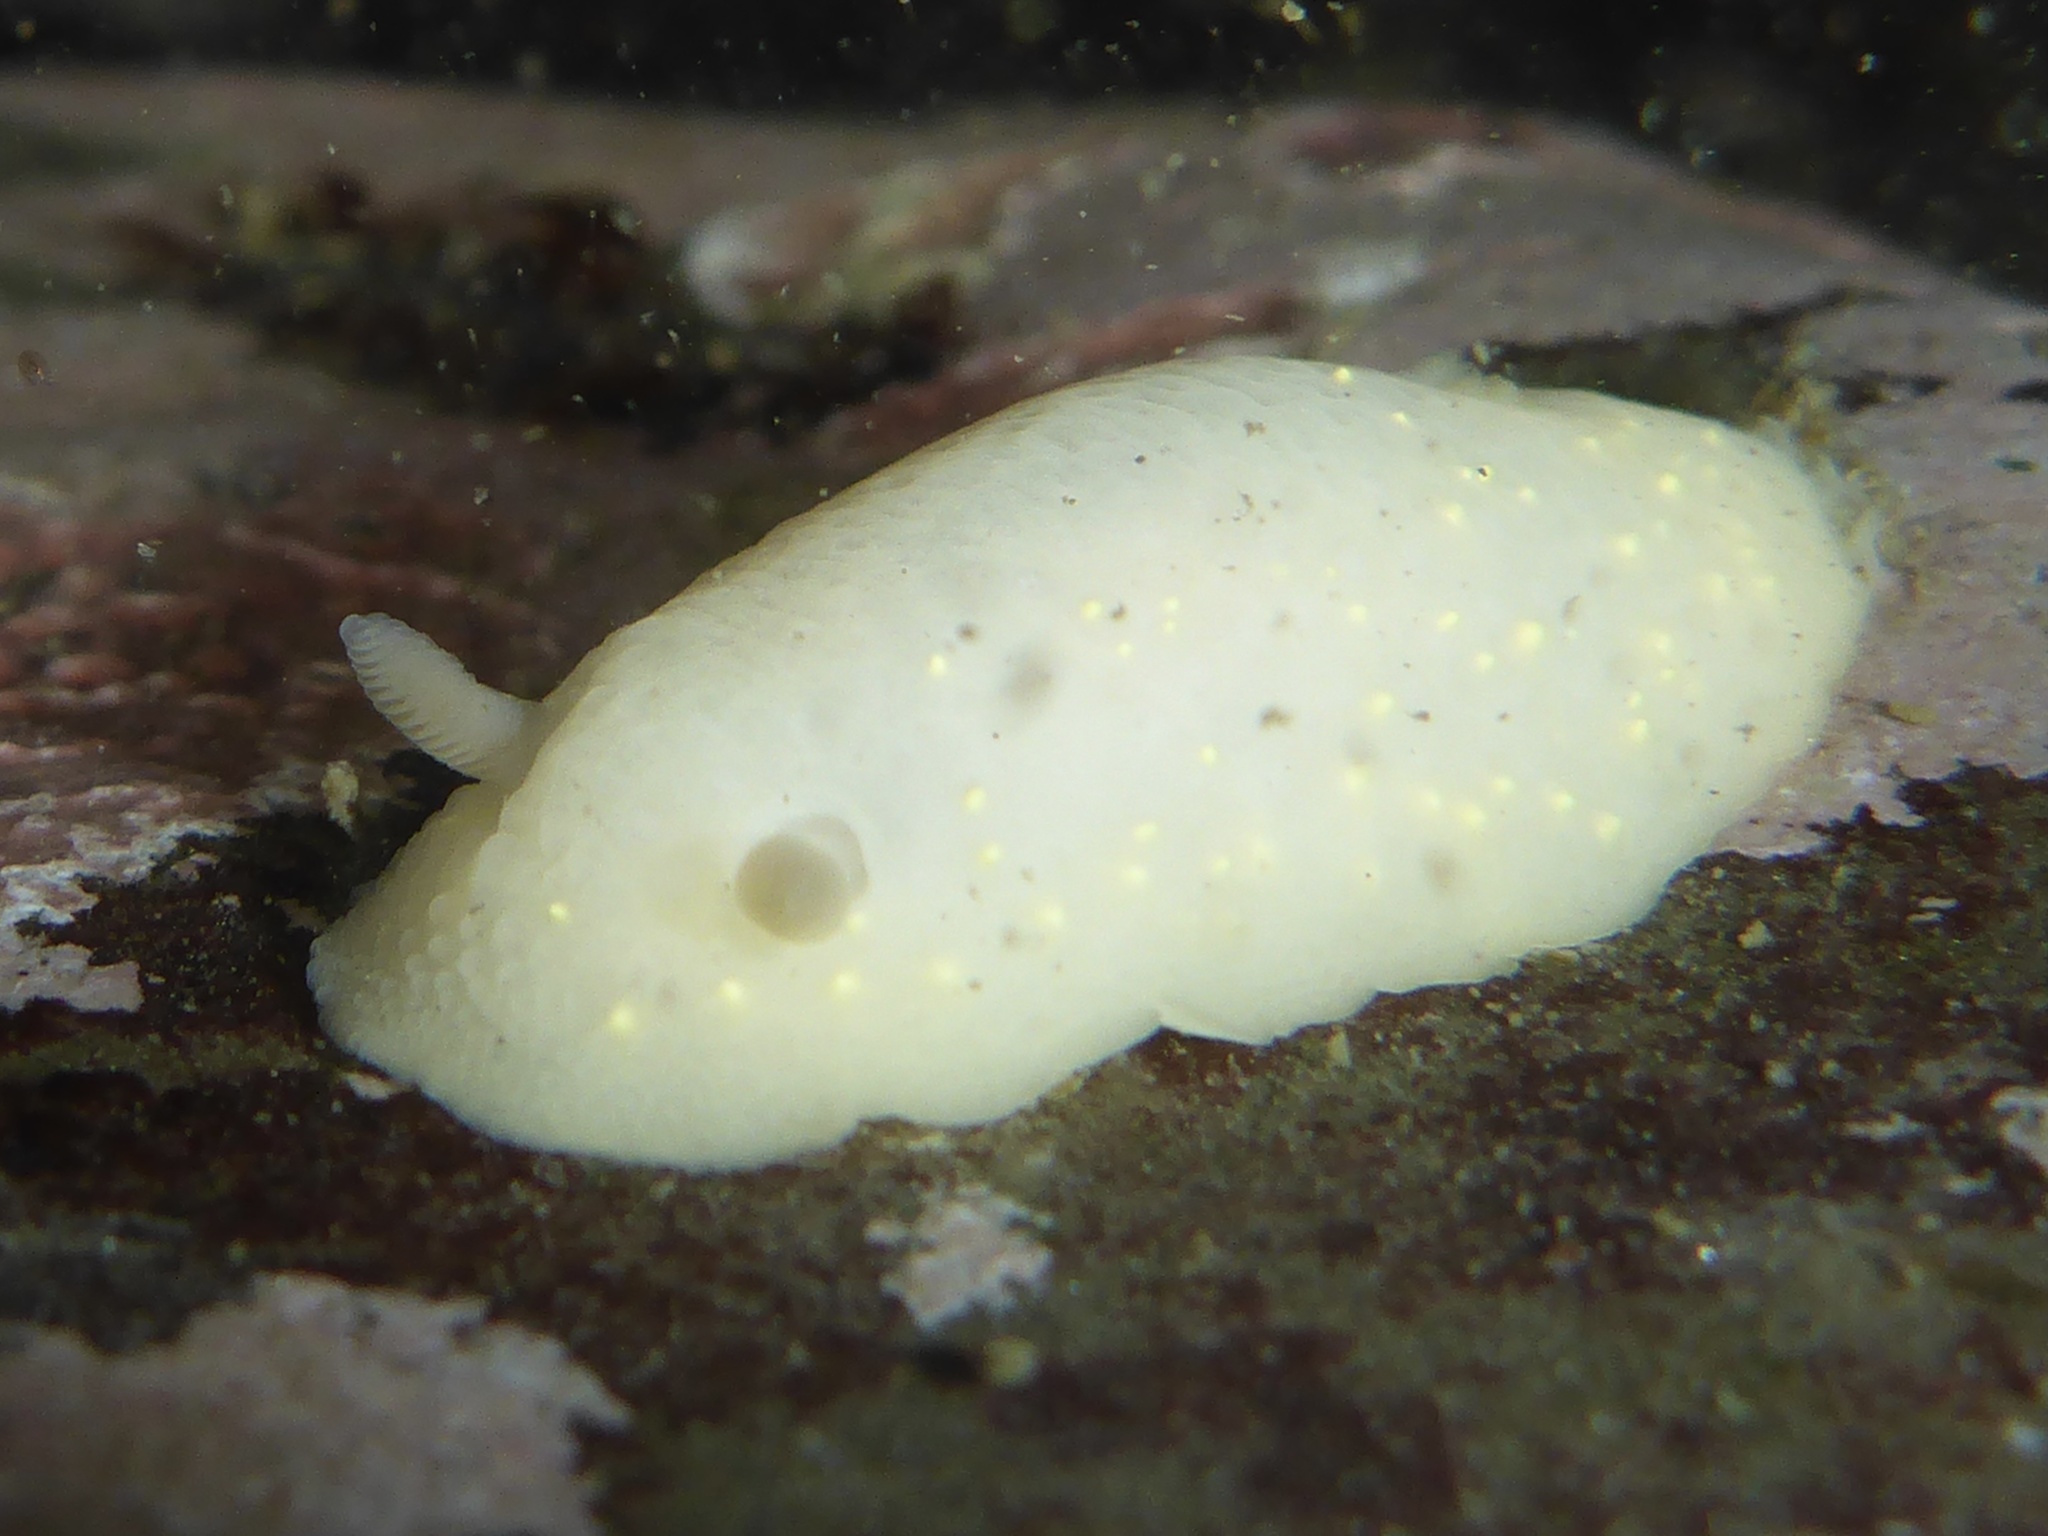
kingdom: Animalia
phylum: Mollusca
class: Gastropoda
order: Nudibranchia
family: Cadlinidae
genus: Cadlina
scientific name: Cadlina modesta
